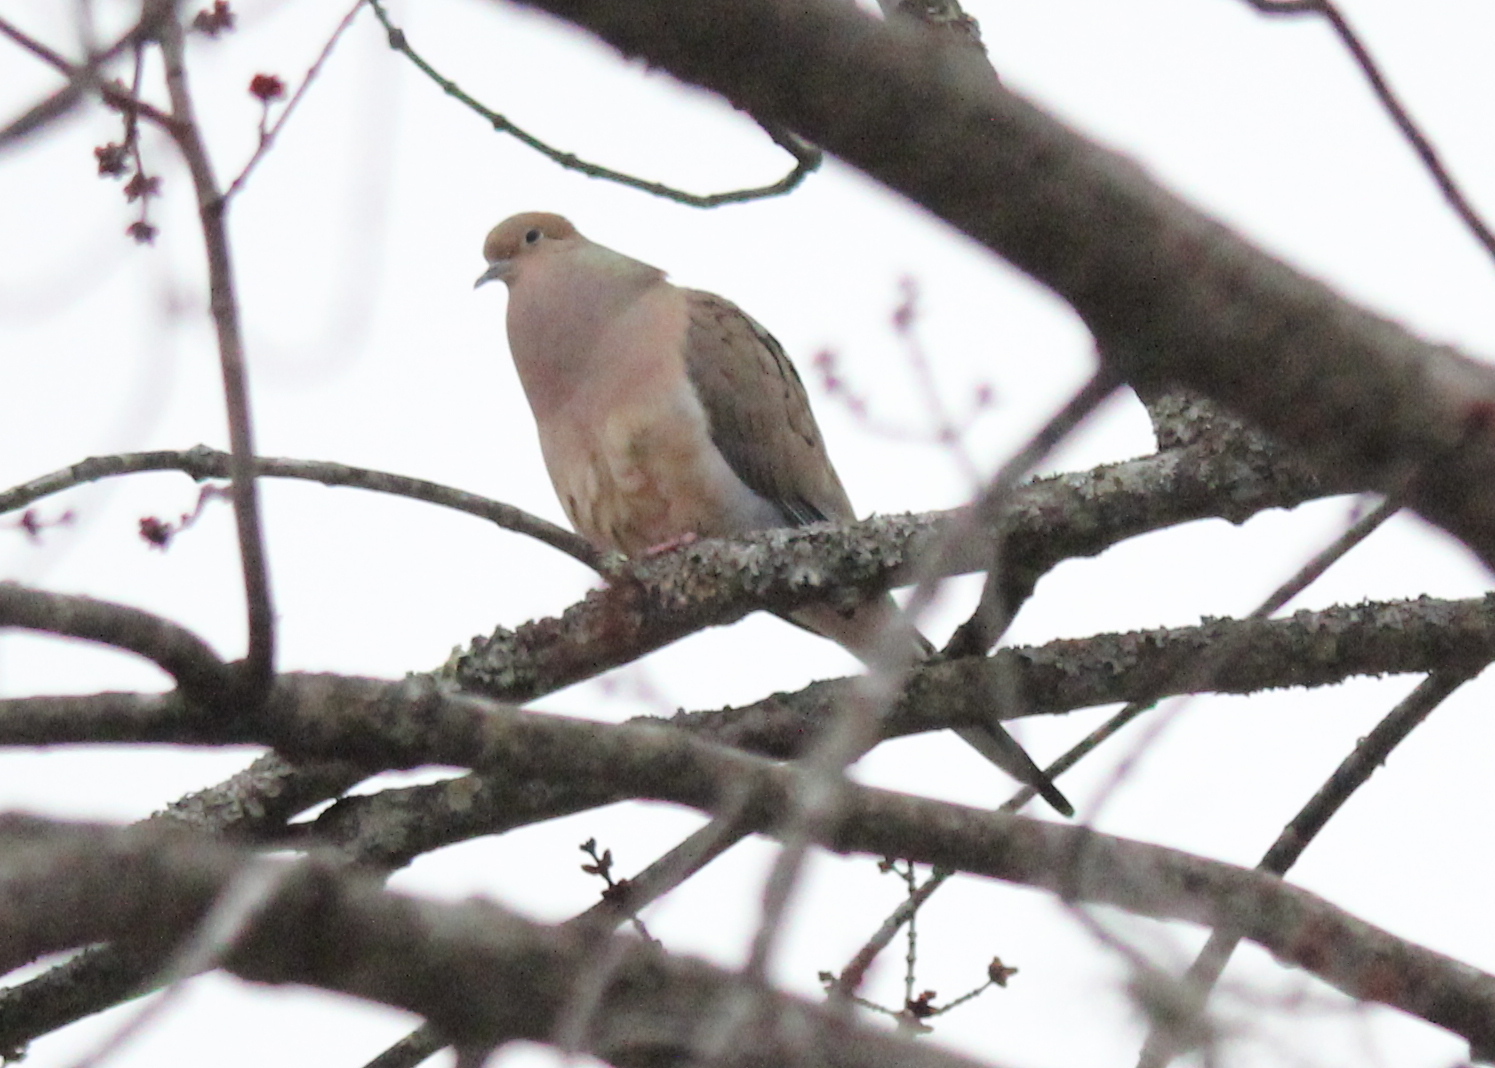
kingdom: Animalia
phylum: Chordata
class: Aves
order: Columbiformes
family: Columbidae
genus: Zenaida
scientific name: Zenaida macroura
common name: Mourning dove
